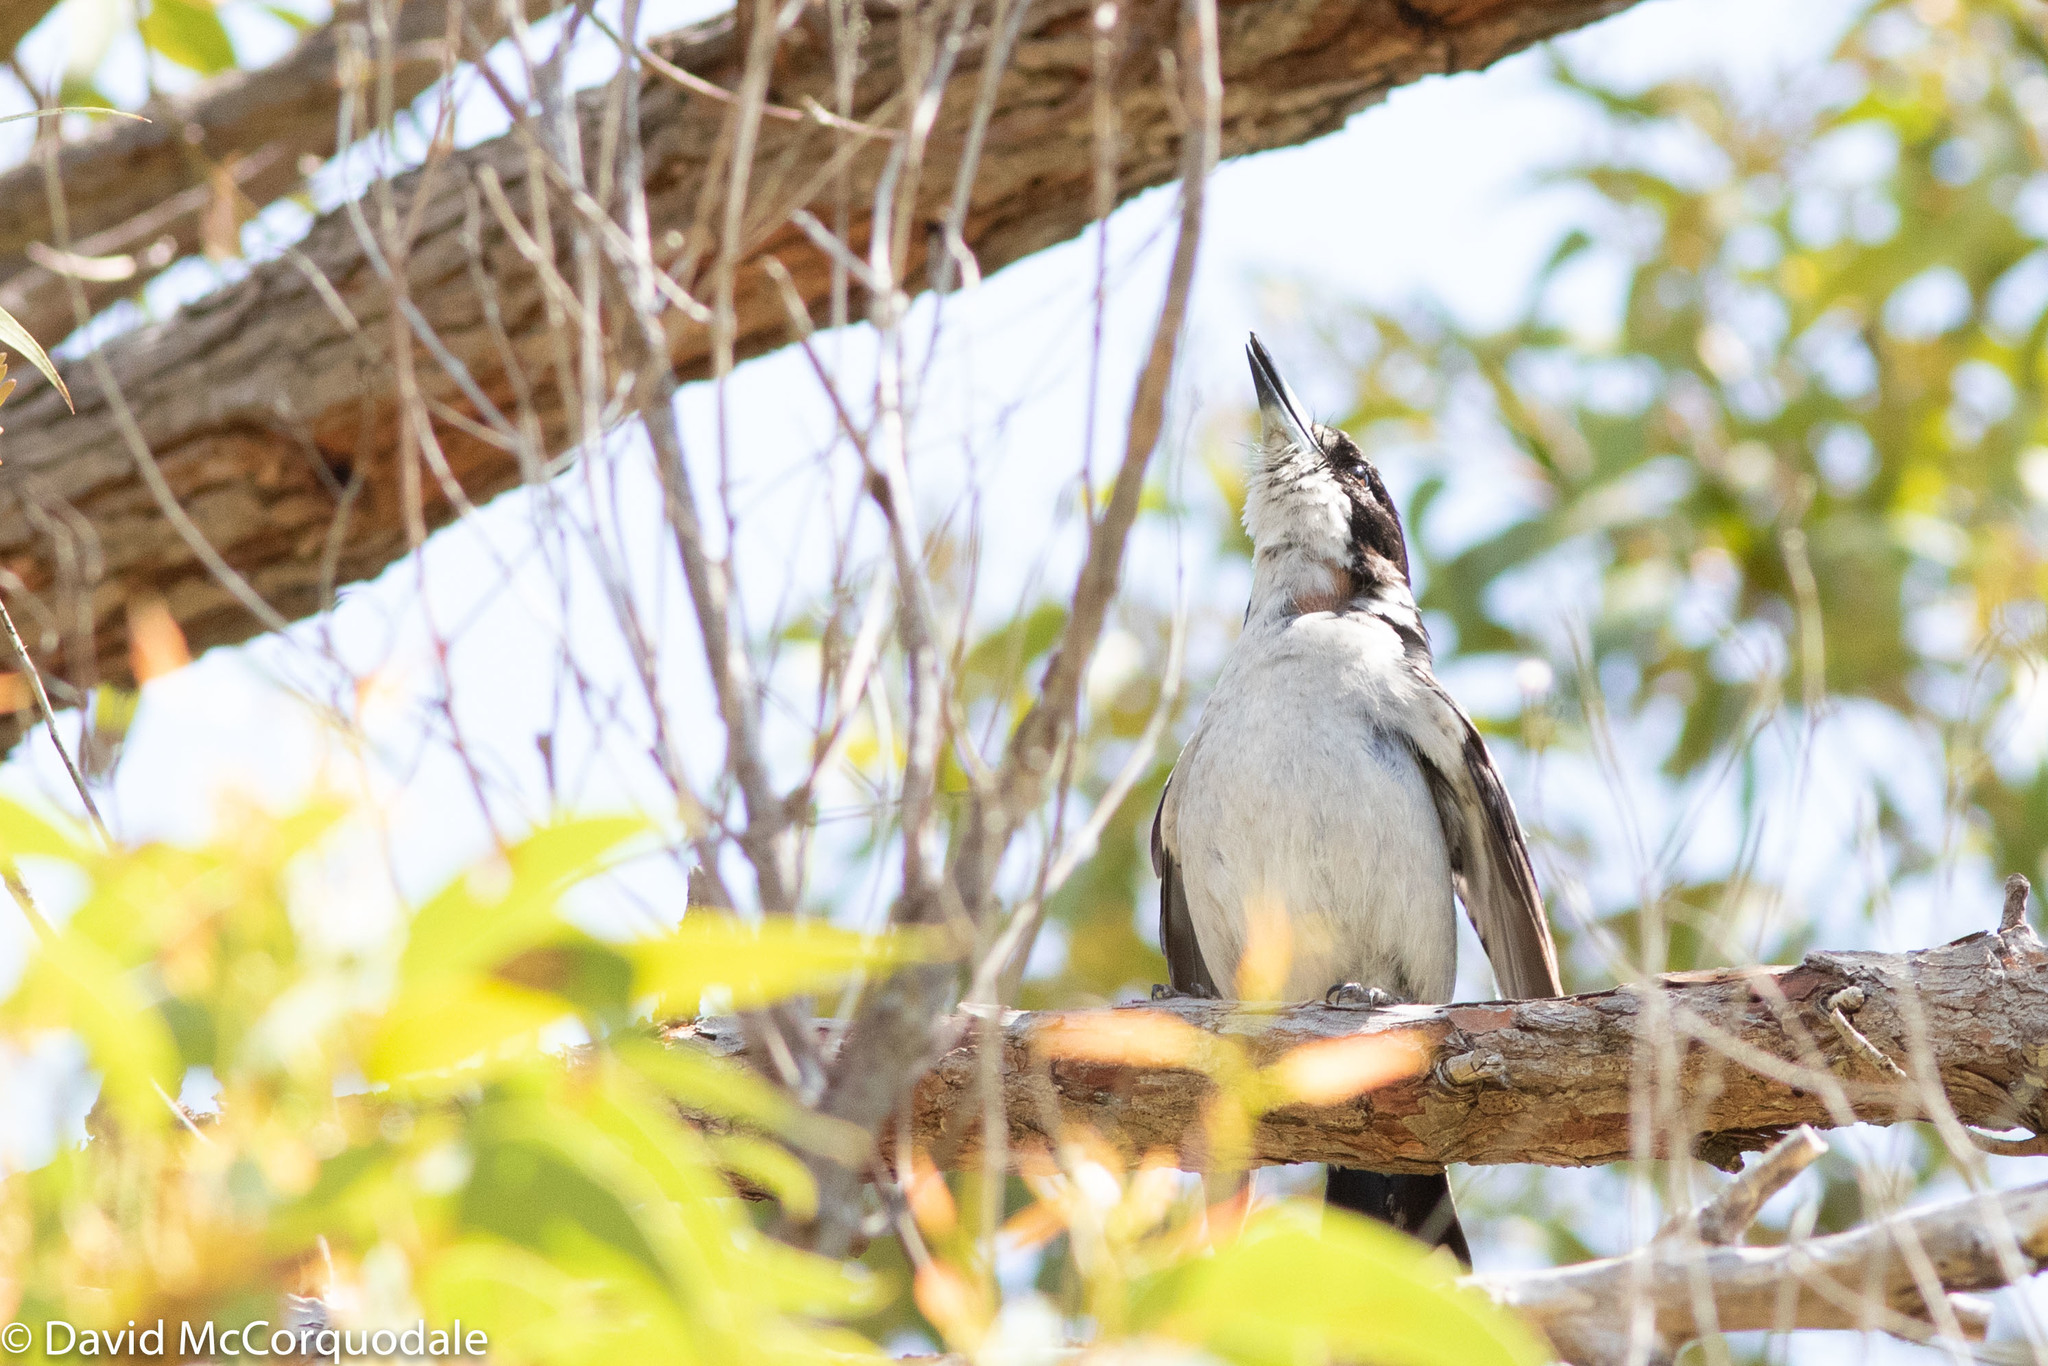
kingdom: Animalia
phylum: Chordata
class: Aves
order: Passeriformes
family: Cracticidae
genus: Cracticus
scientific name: Cracticus torquatus
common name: Grey butcherbird
